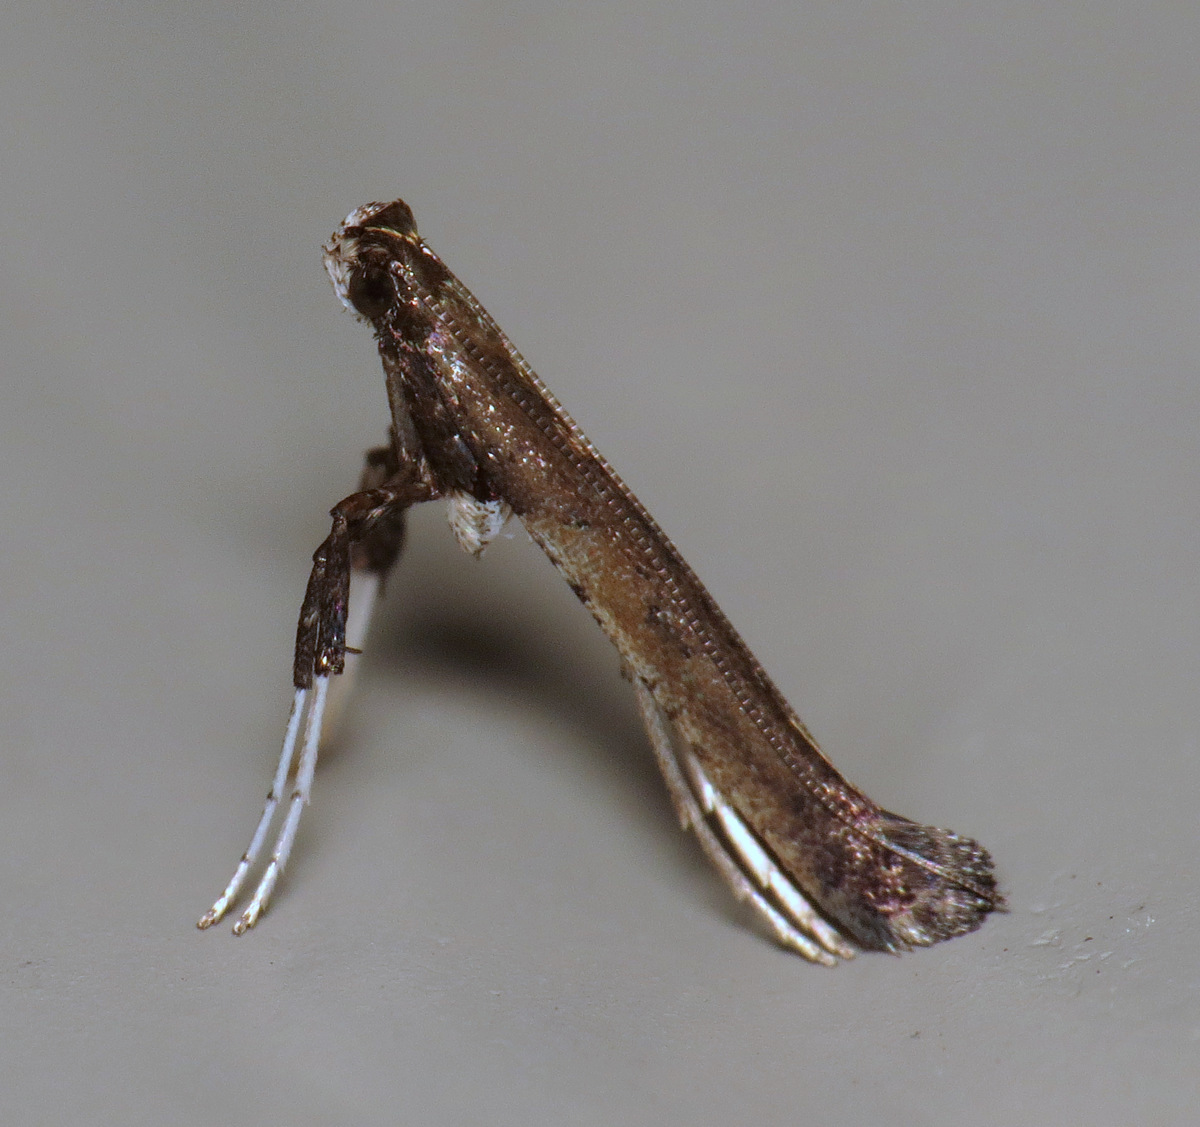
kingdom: Animalia
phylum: Arthropoda
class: Insecta
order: Lepidoptera
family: Gracillariidae
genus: Caloptilia
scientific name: Caloptilia rhoifoliella
